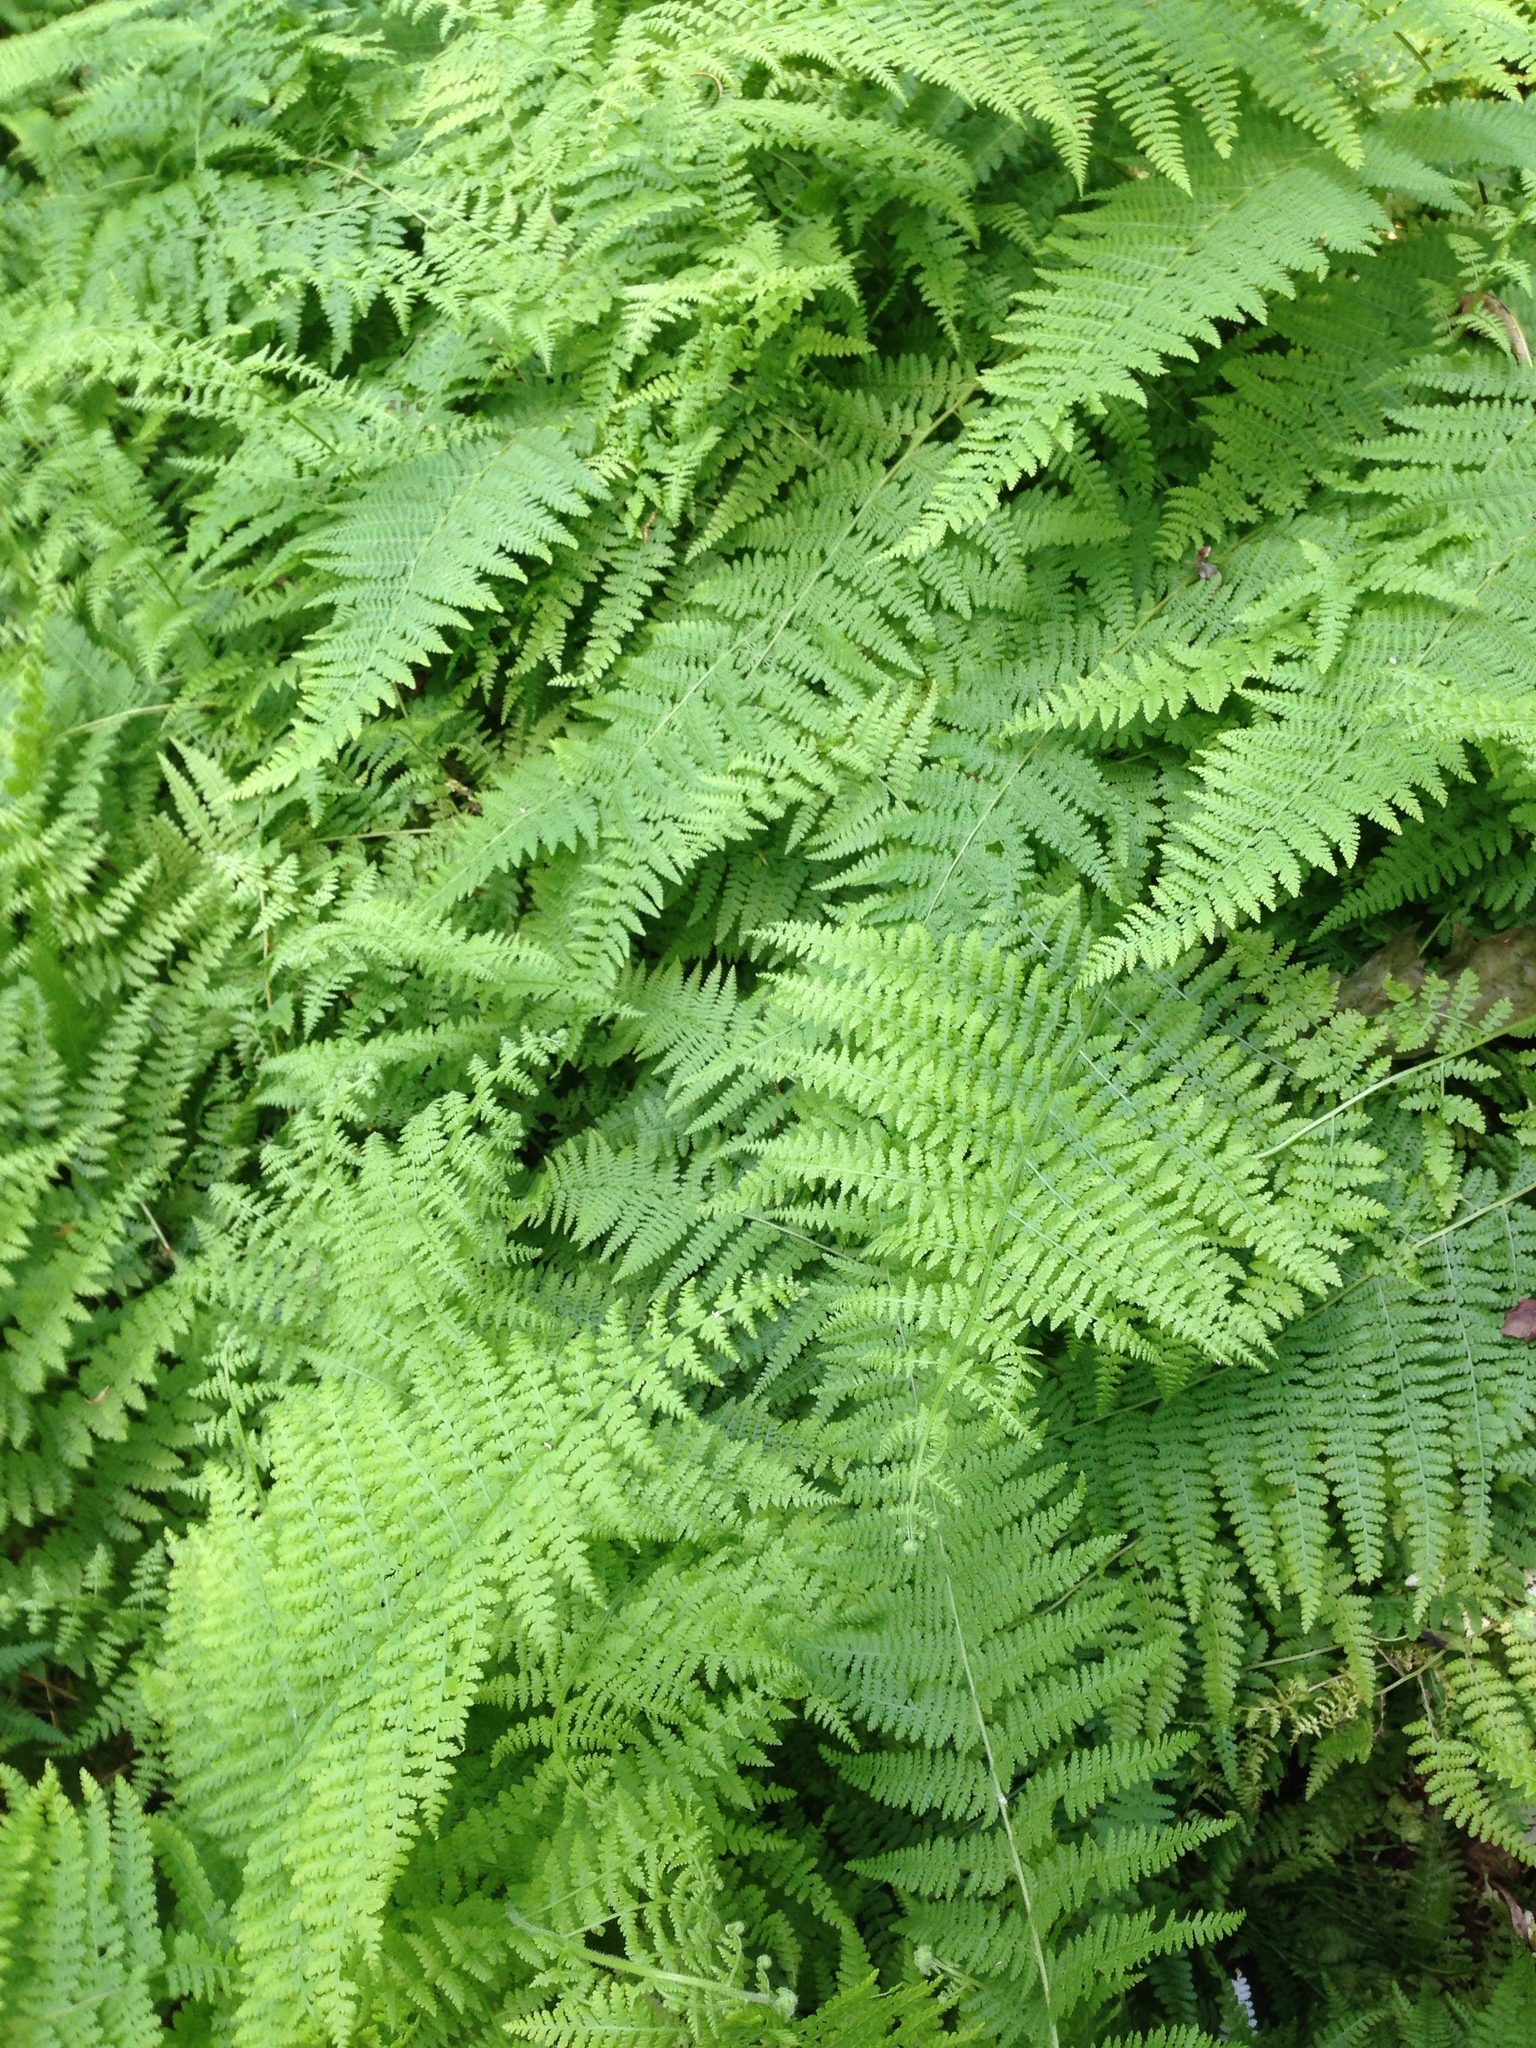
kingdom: Plantae
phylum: Tracheophyta
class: Polypodiopsida
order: Polypodiales
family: Dennstaedtiaceae
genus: Sitobolium
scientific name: Sitobolium punctilobum
